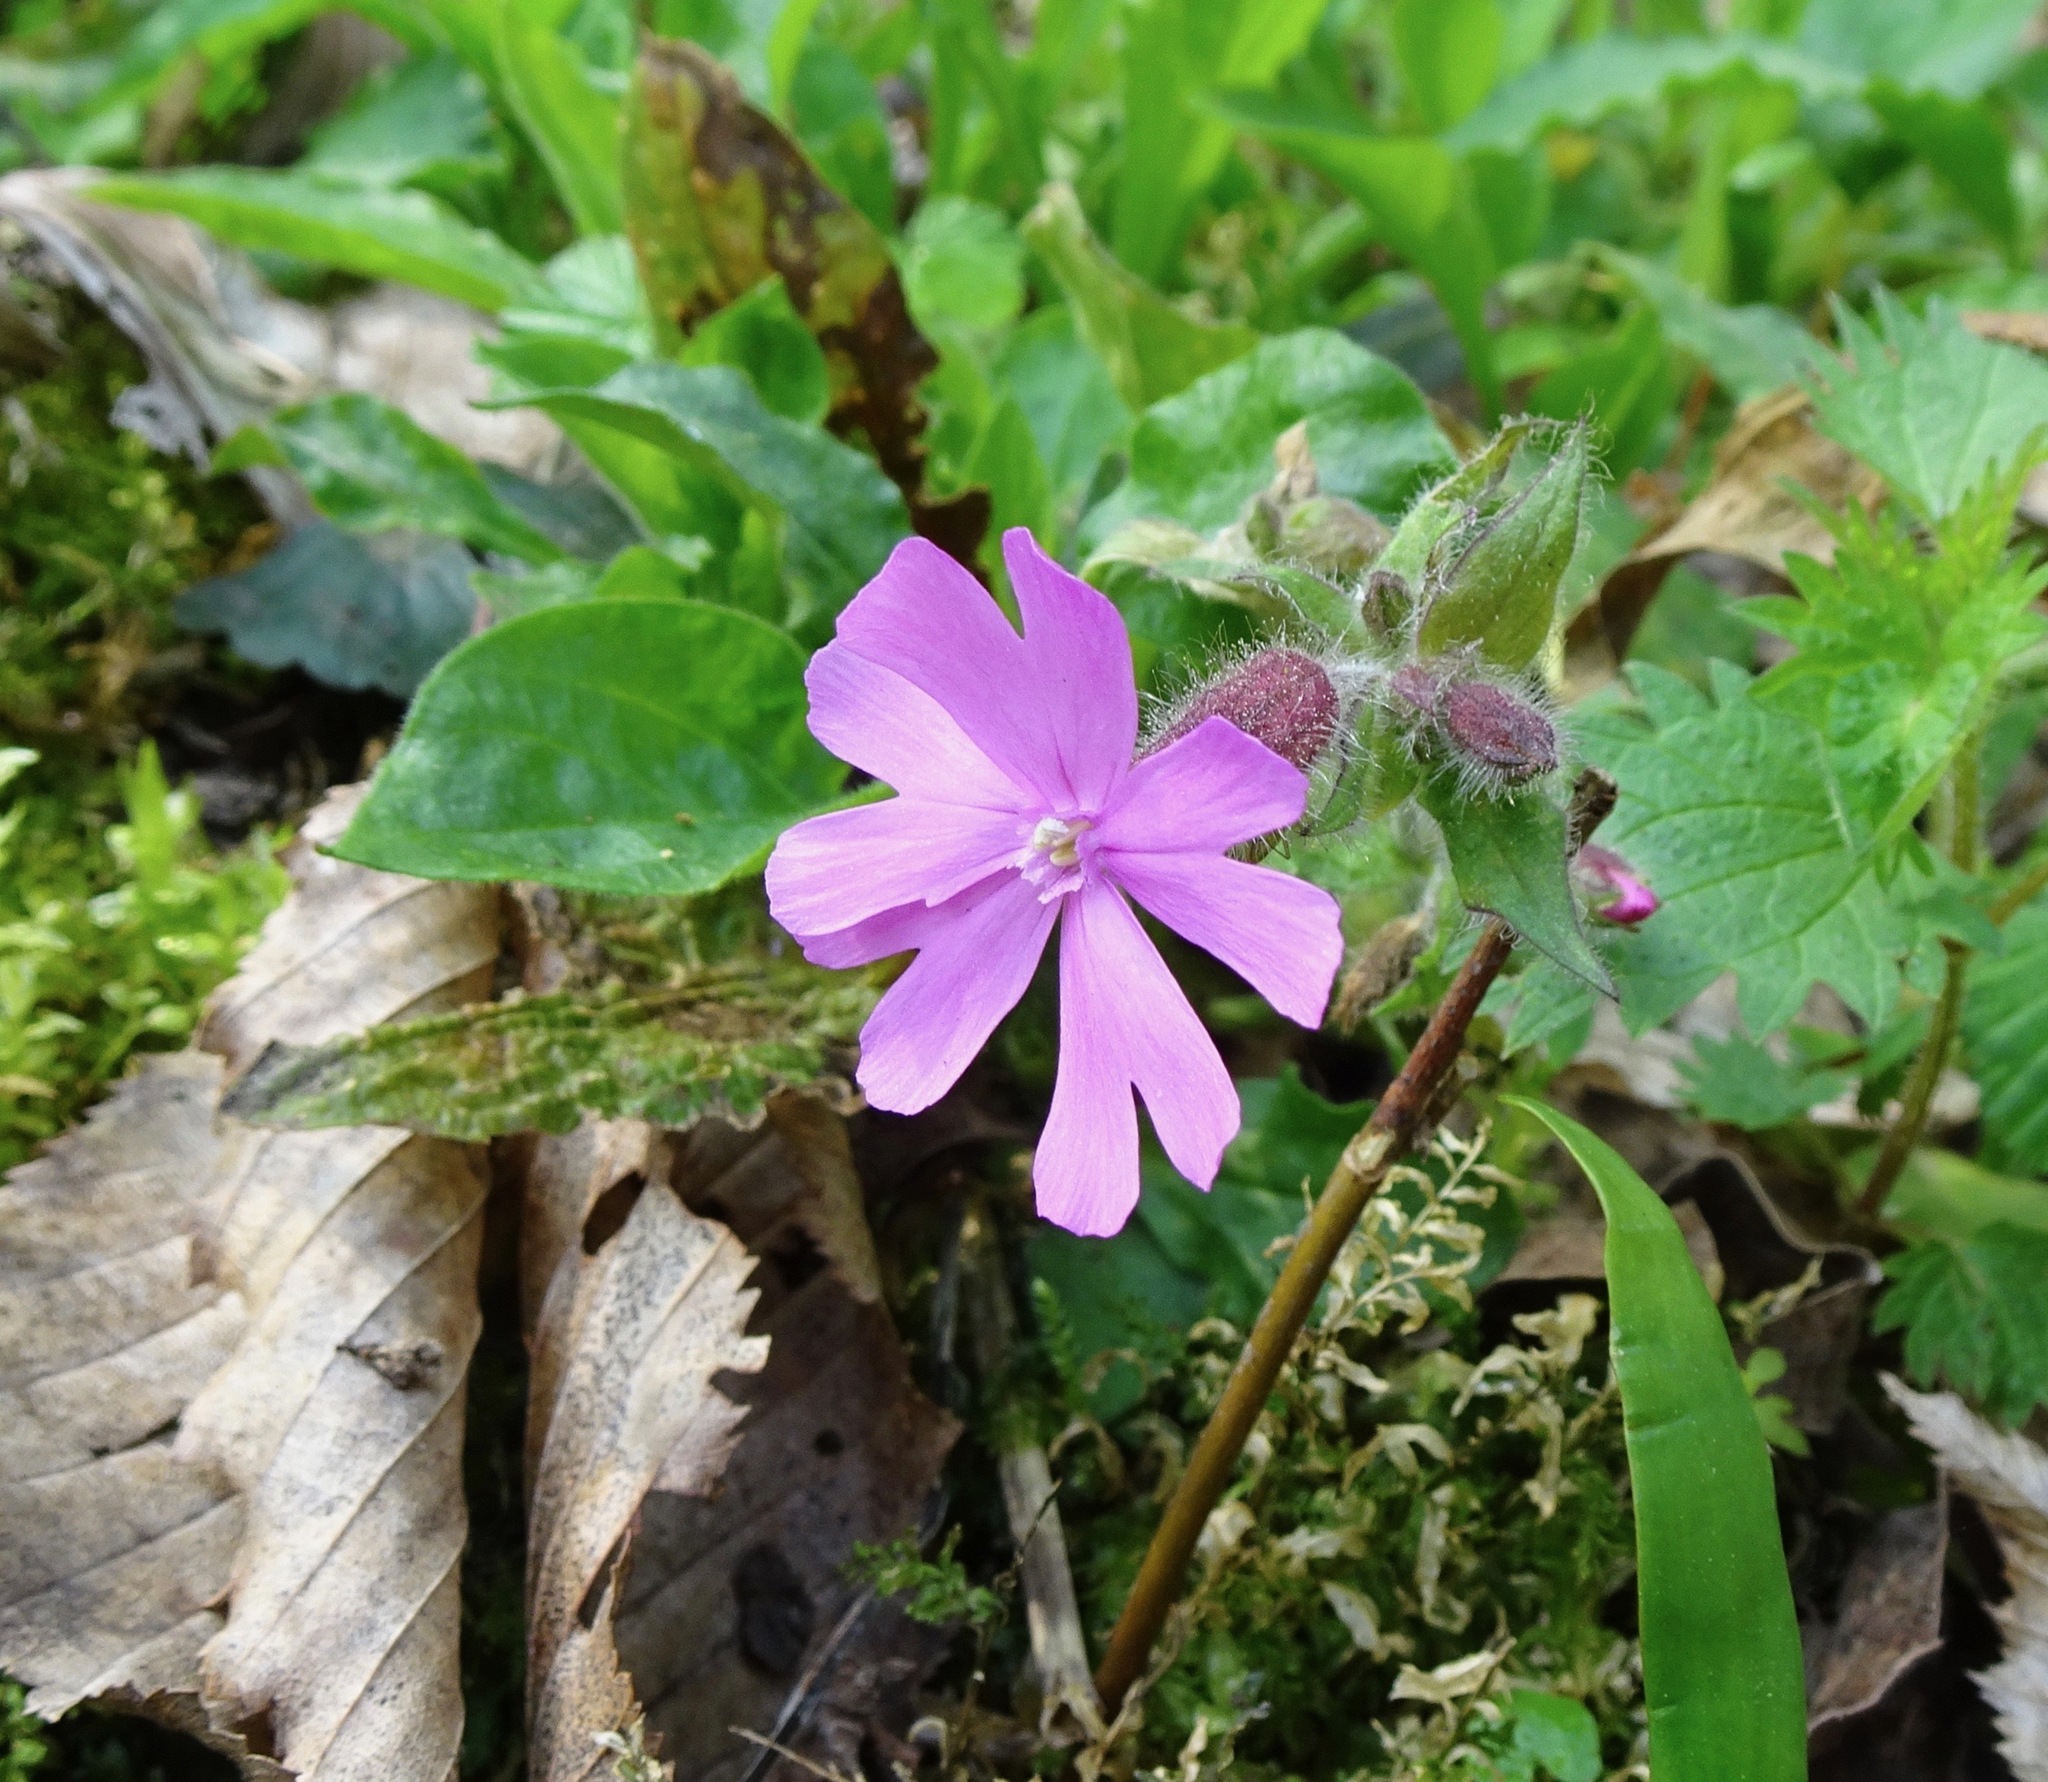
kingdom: Plantae
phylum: Tracheophyta
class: Magnoliopsida
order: Caryophyllales
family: Caryophyllaceae
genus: Silene
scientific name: Silene dioica
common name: Red campion
